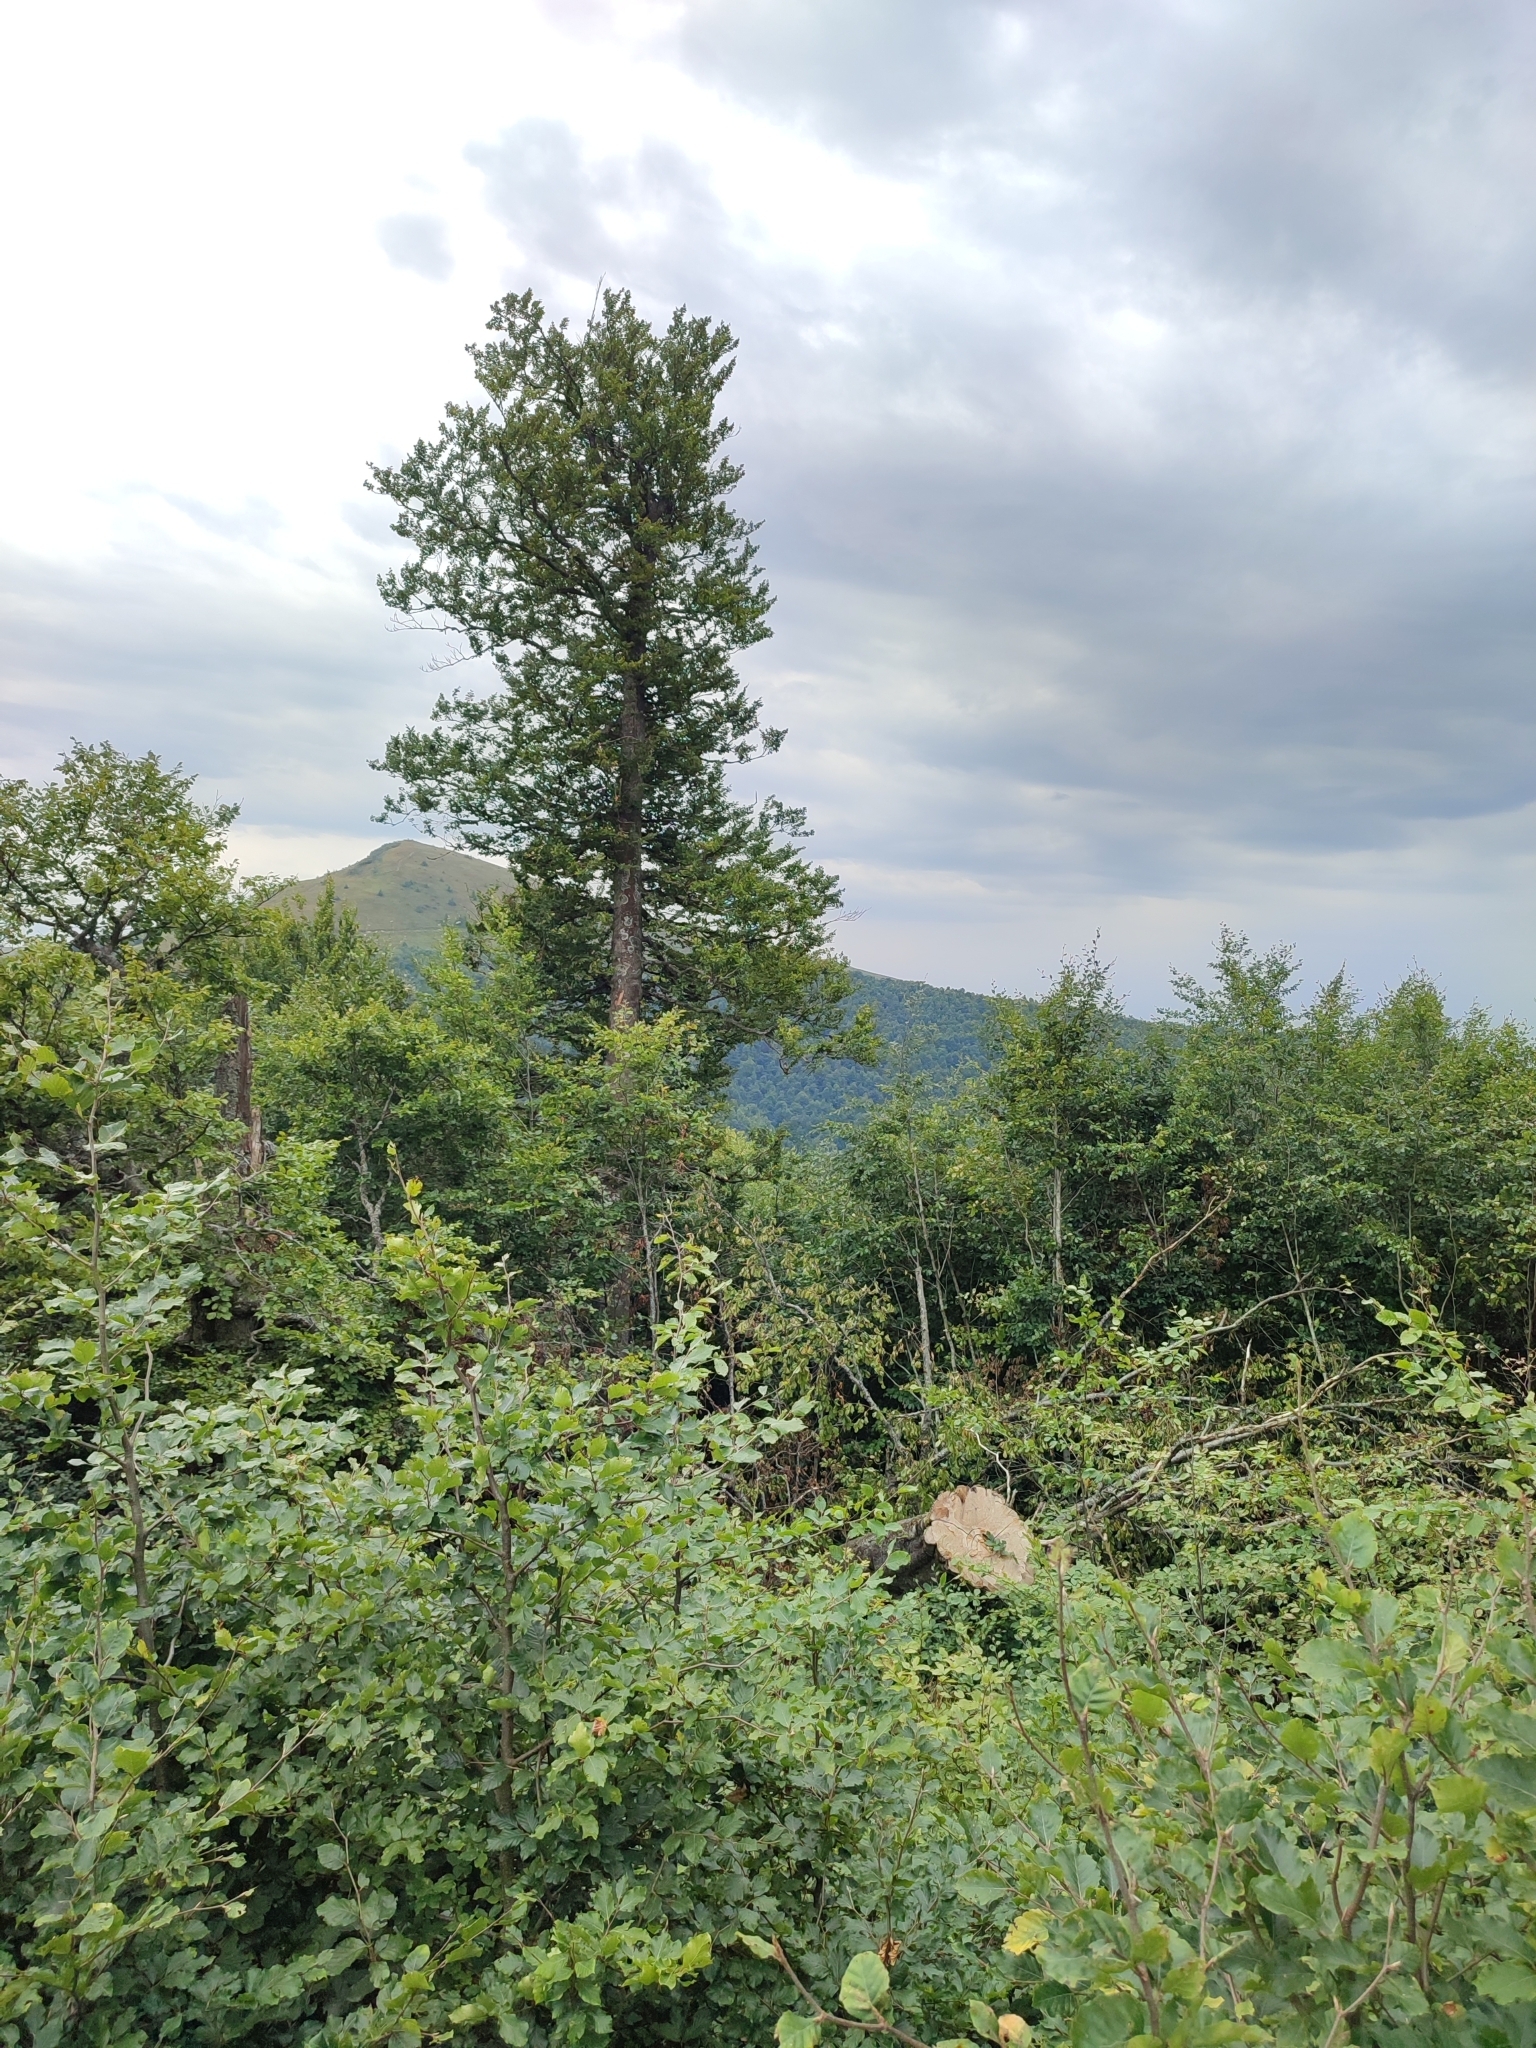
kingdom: Plantae
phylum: Tracheophyta
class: Magnoliopsida
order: Fagales
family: Fagaceae
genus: Fagus
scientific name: Fagus sylvatica
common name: Beech
